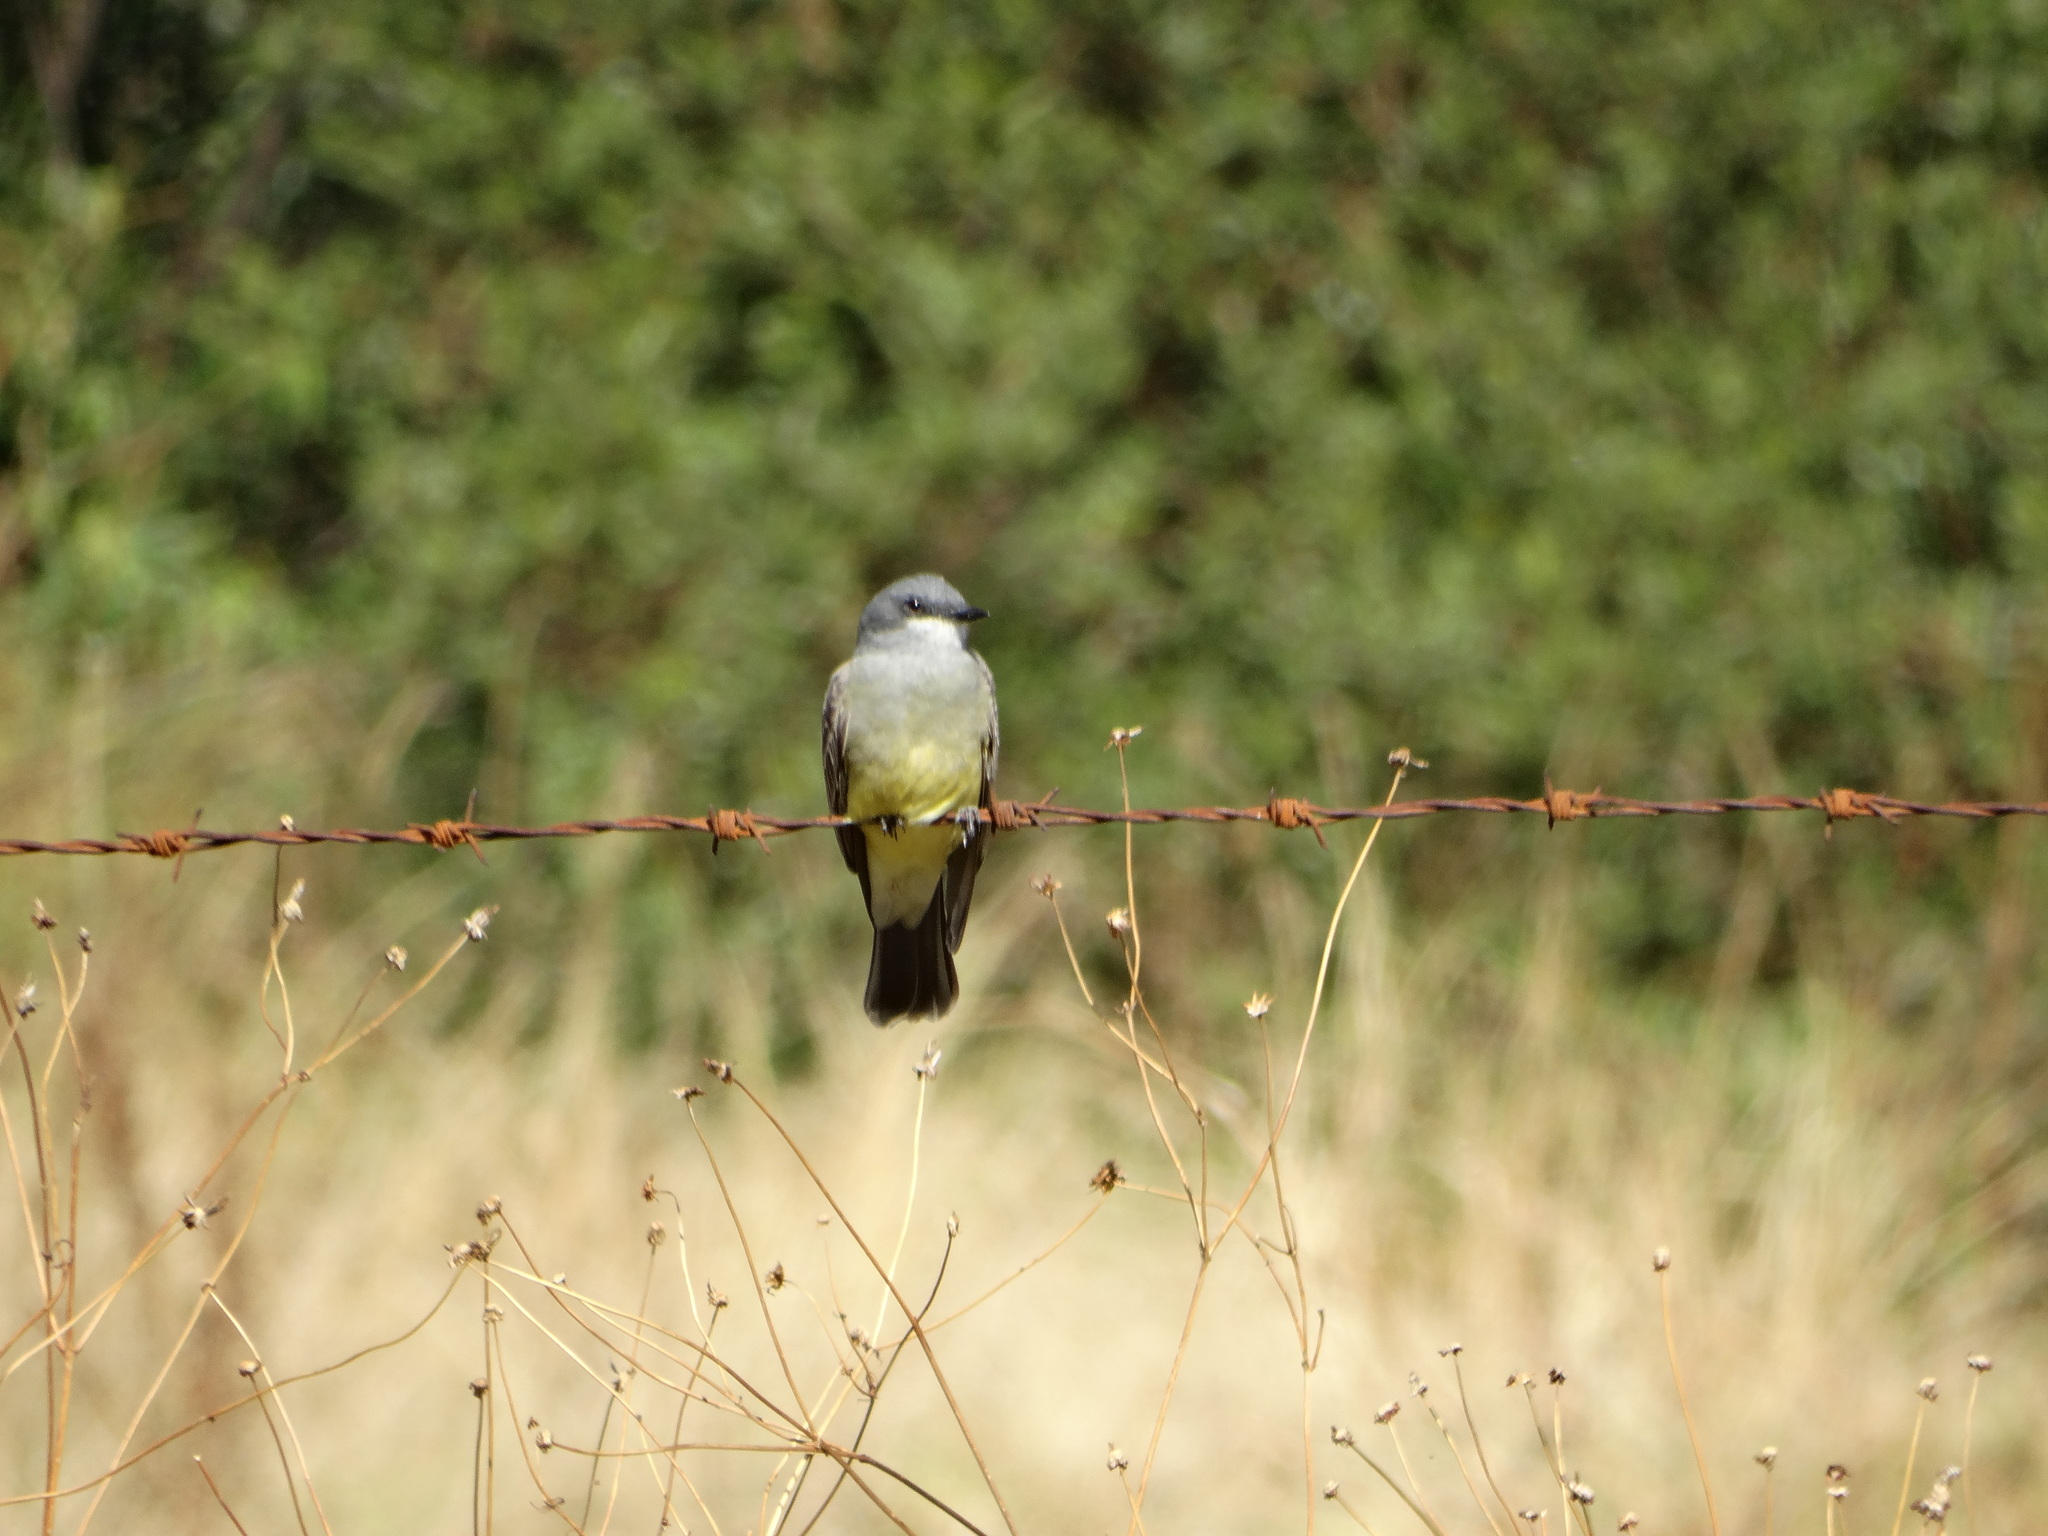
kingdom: Animalia
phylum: Chordata
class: Aves
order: Passeriformes
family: Tyrannidae
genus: Tyrannus
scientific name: Tyrannus vociferans
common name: Cassin's kingbird
